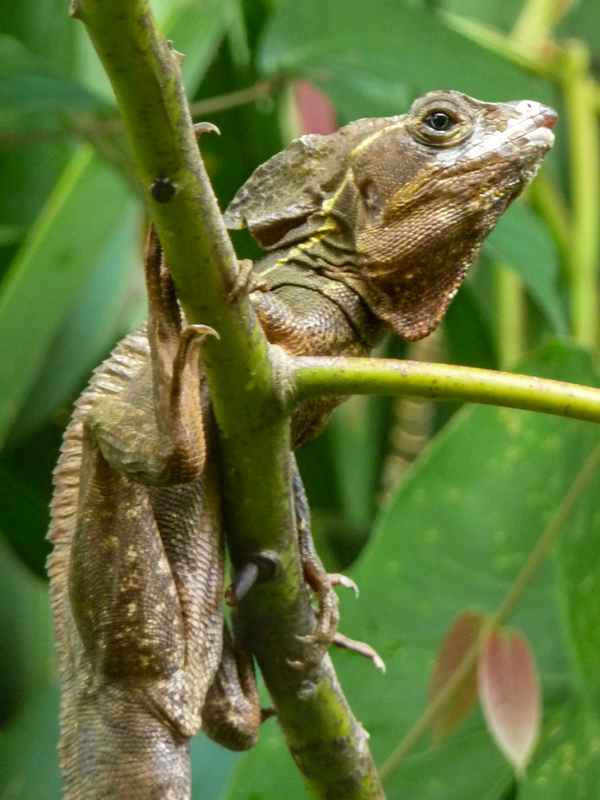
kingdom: Animalia
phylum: Chordata
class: Squamata
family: Corytophanidae
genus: Basiliscus
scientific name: Basiliscus vittatus
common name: Brown basilisk
